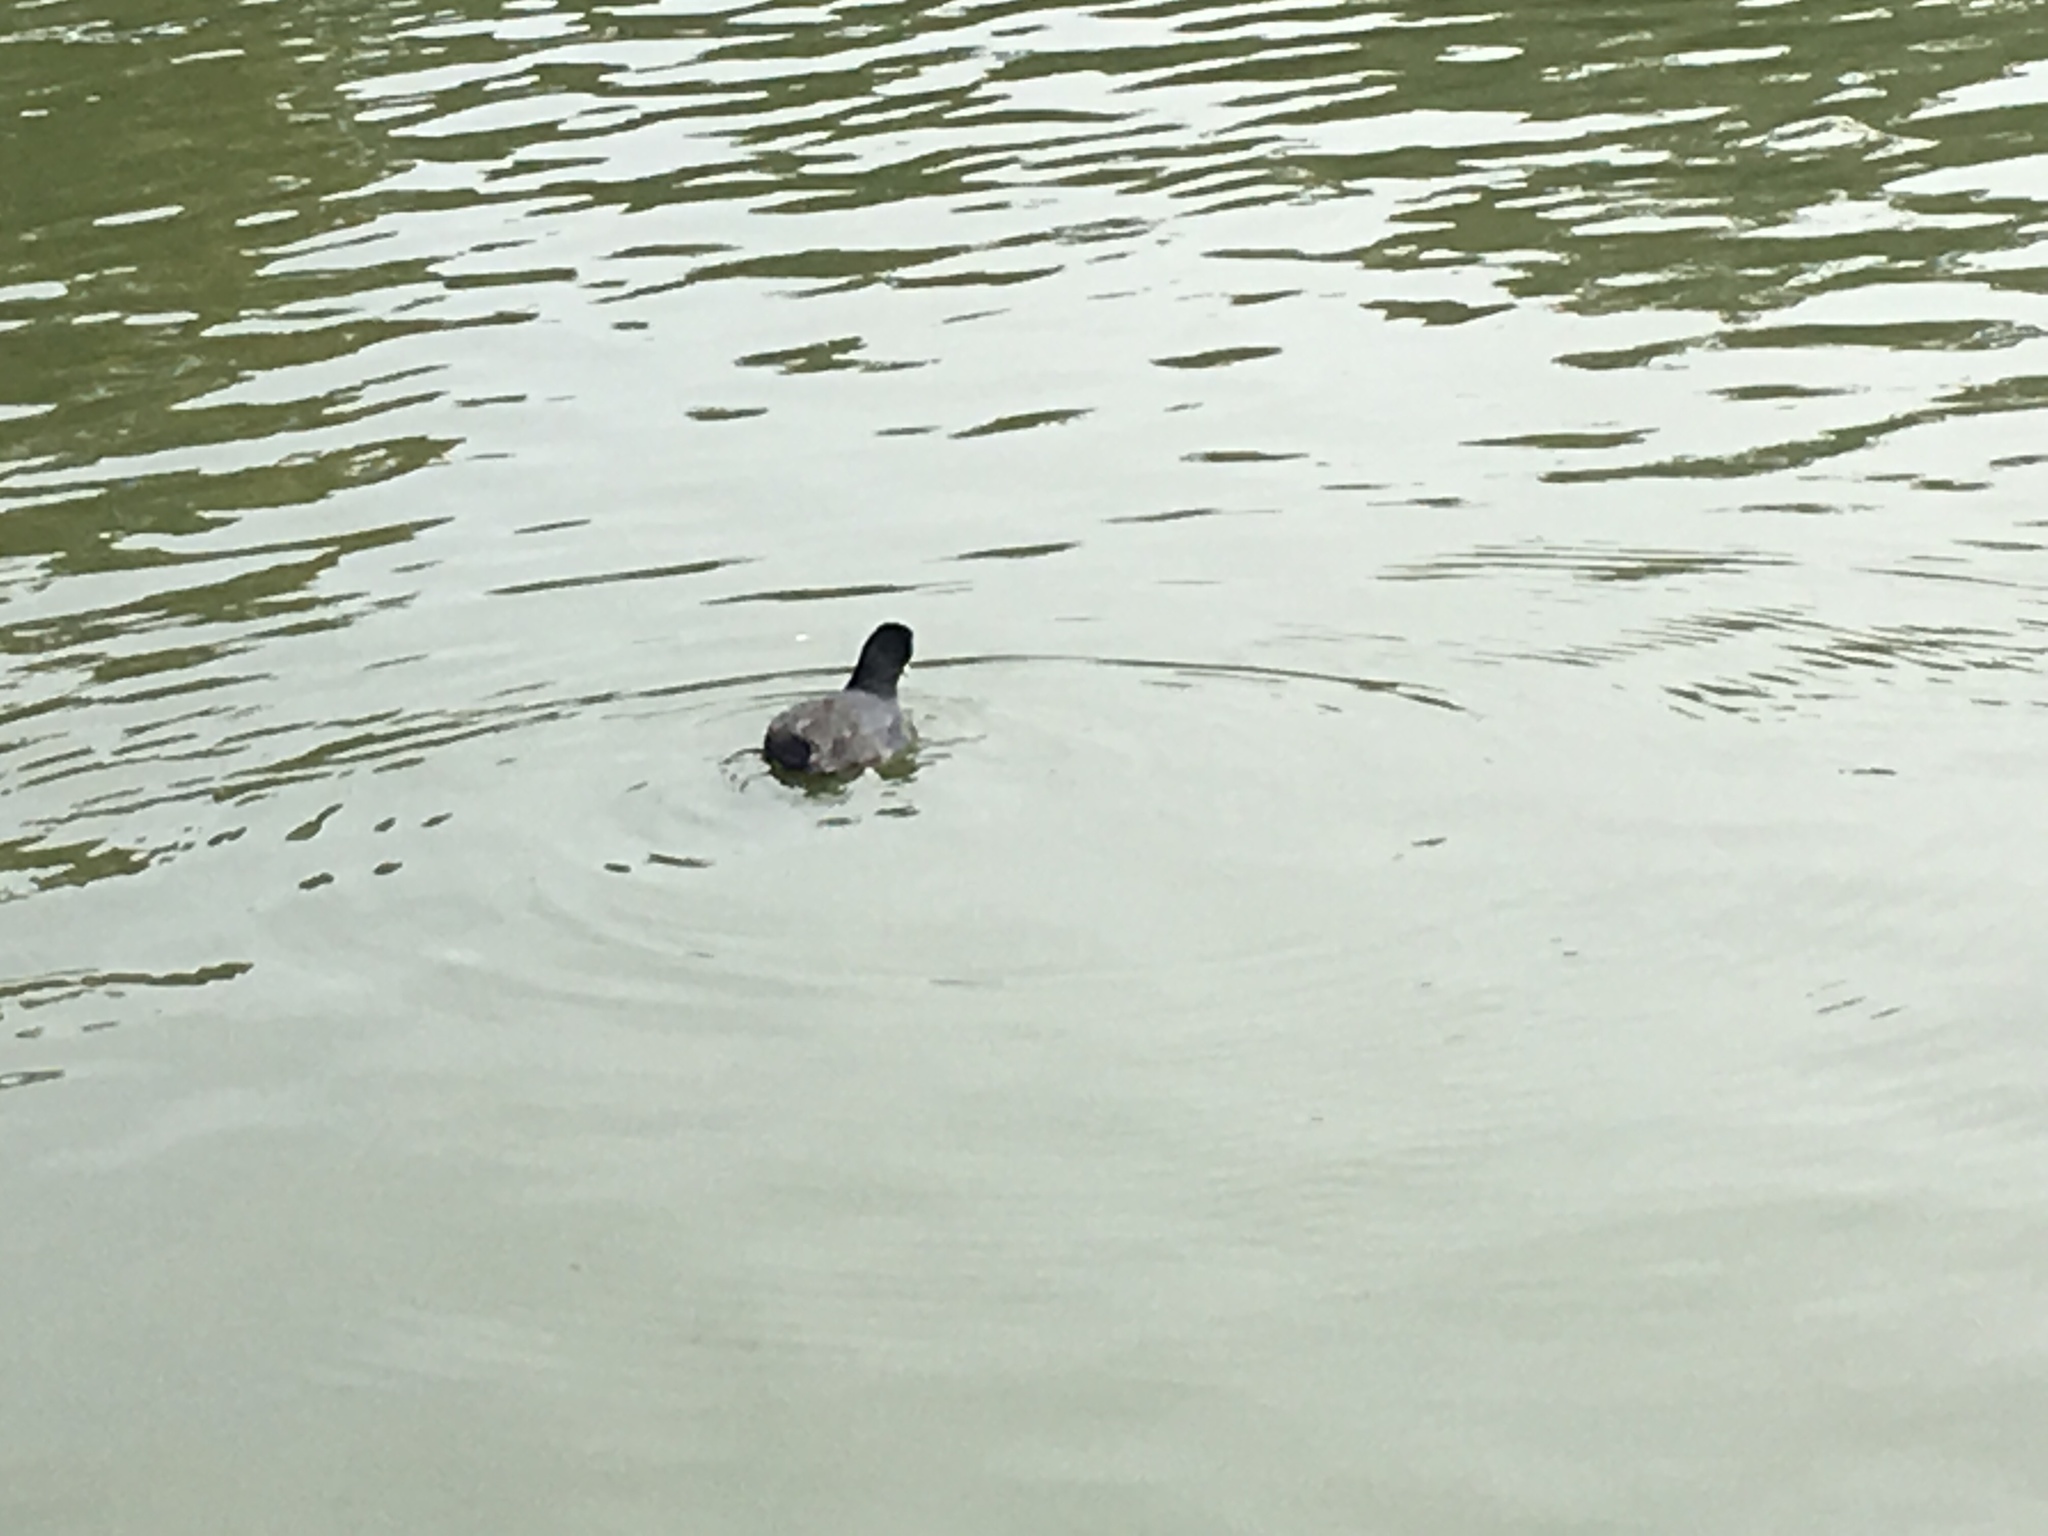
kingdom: Animalia
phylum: Chordata
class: Aves
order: Gruiformes
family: Rallidae
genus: Fulica
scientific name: Fulica americana
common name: American coot
